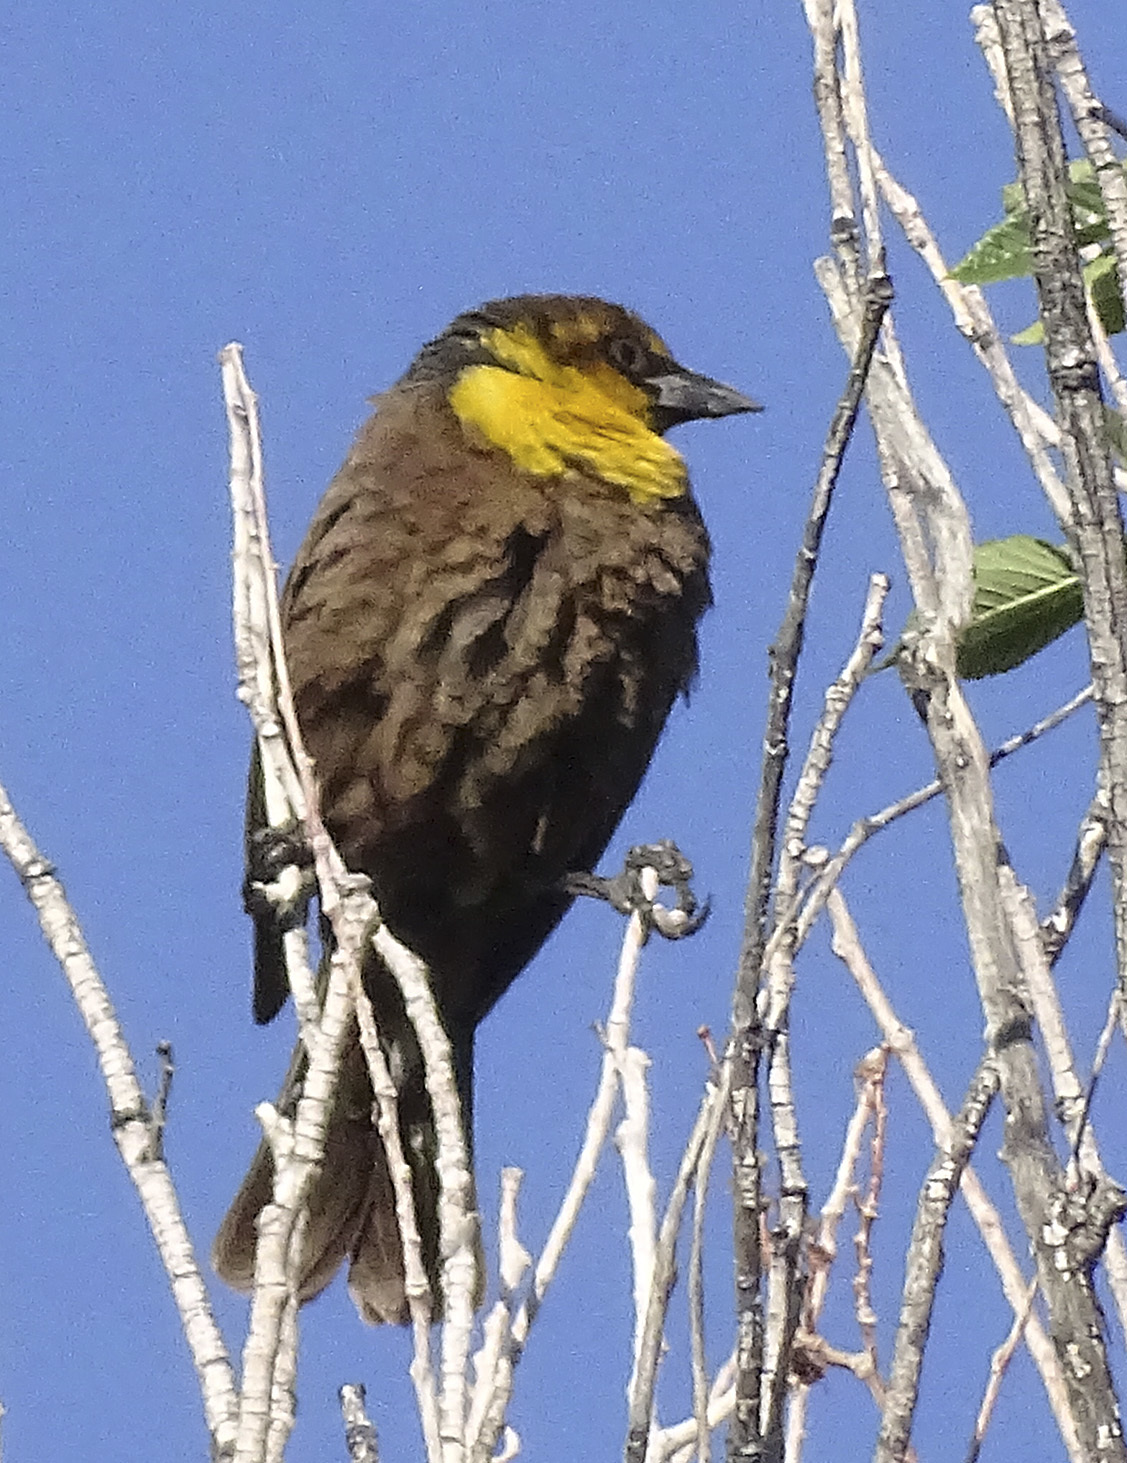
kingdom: Animalia
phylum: Chordata
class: Aves
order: Passeriformes
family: Icteridae
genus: Xanthocephalus
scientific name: Xanthocephalus xanthocephalus
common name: Yellow-headed blackbird
